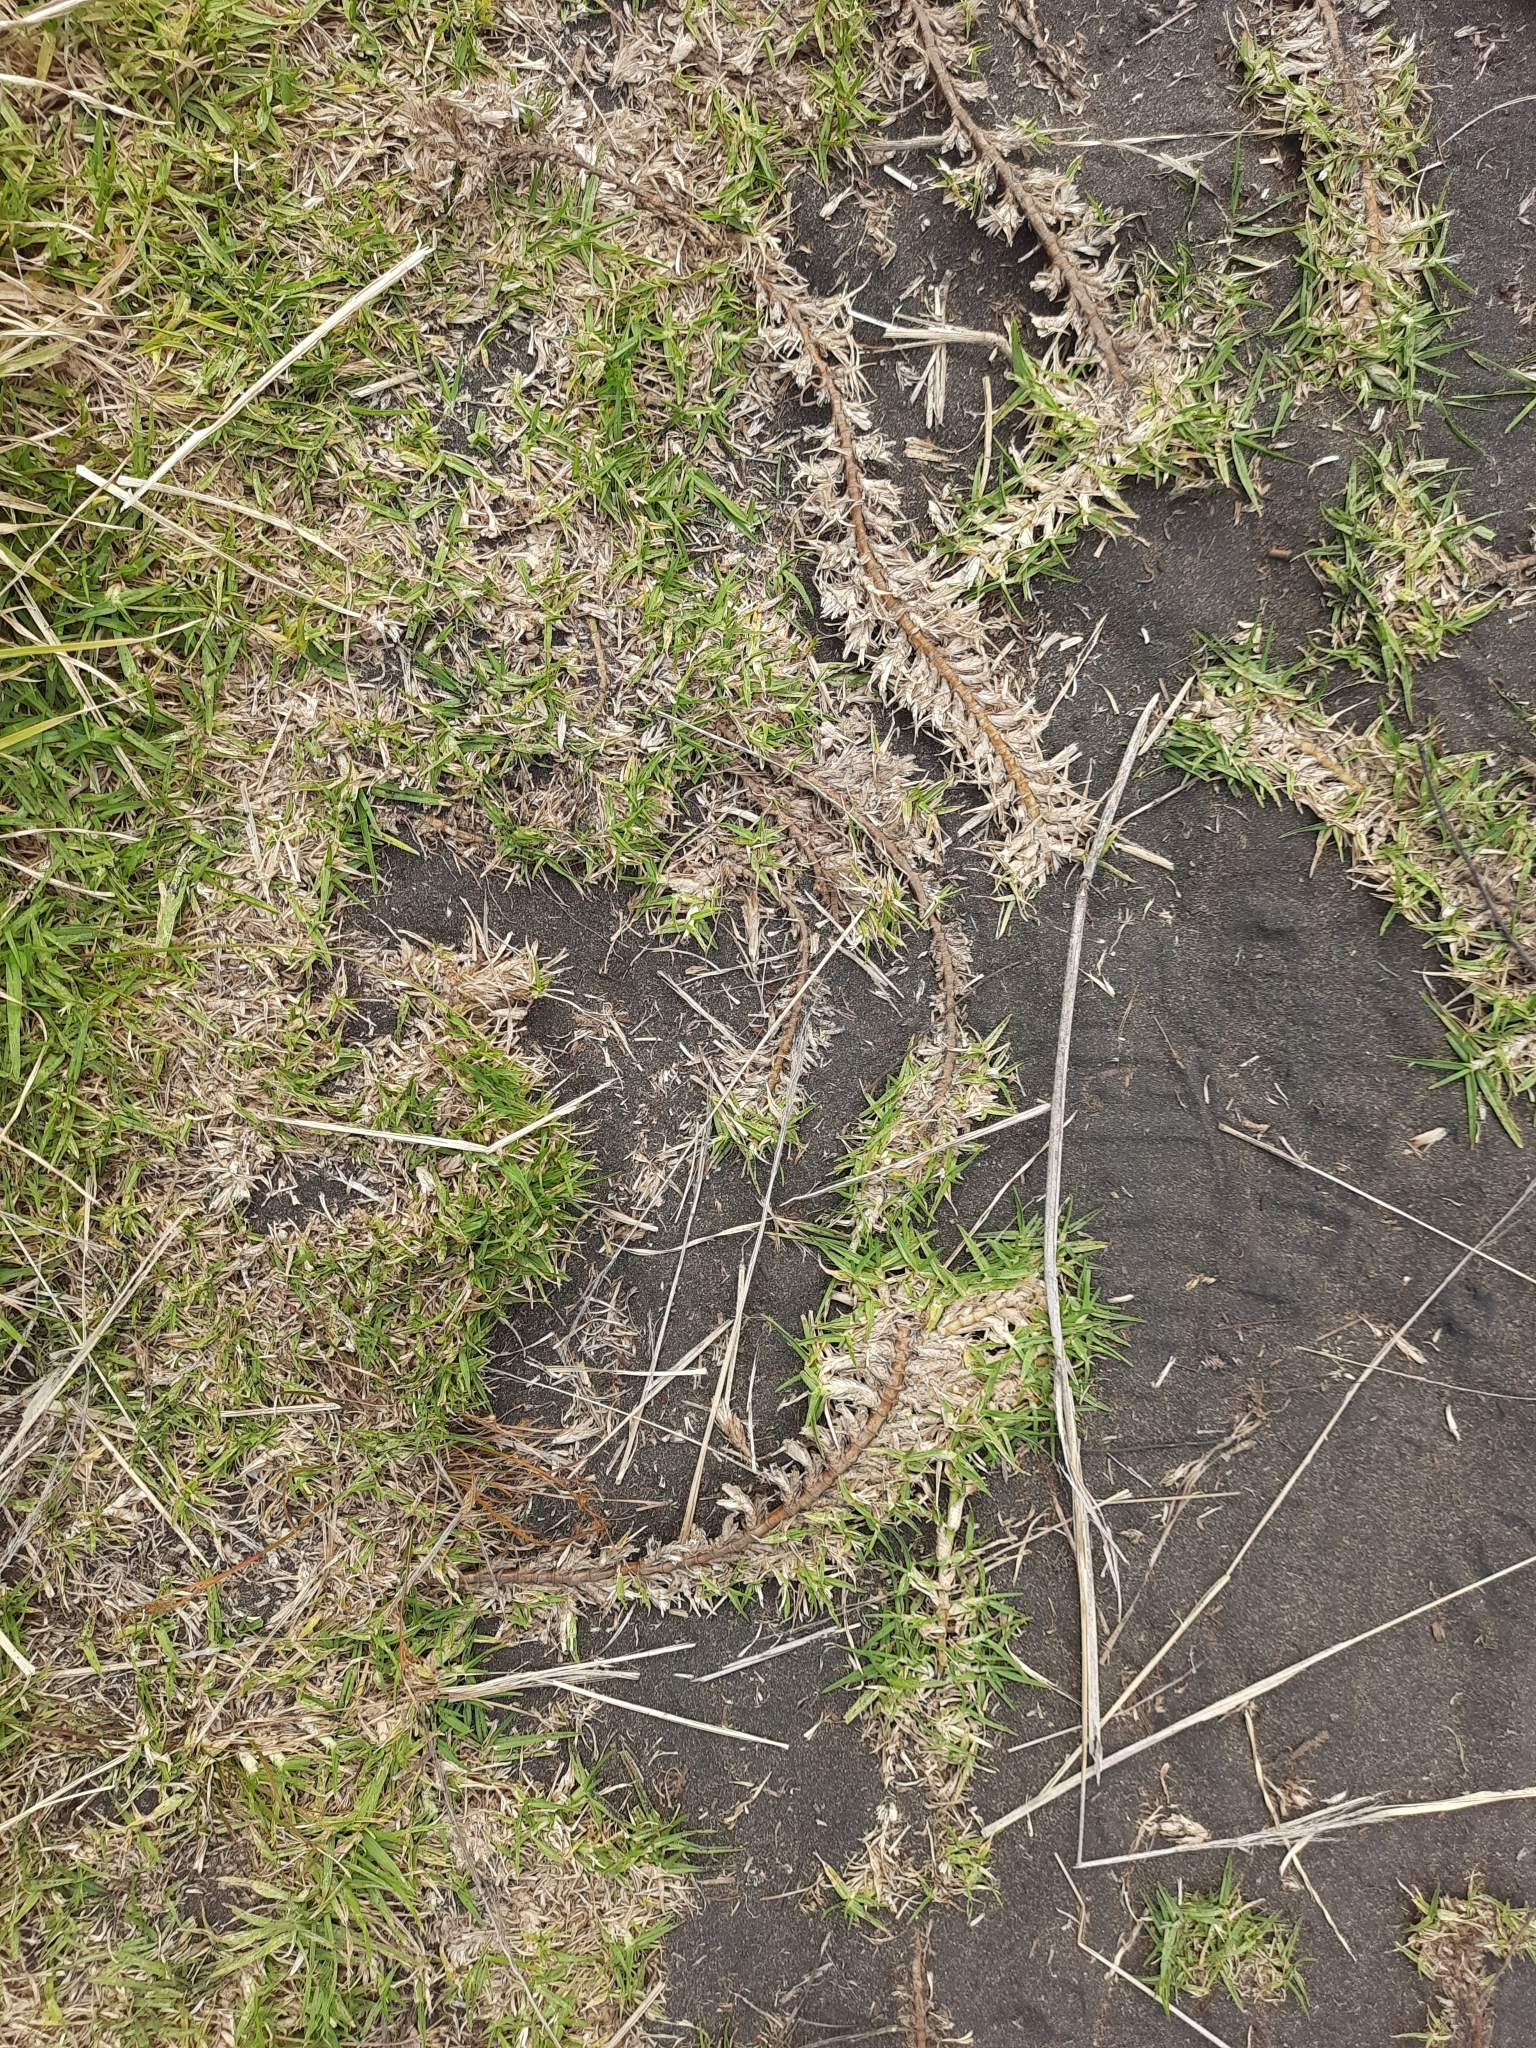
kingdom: Plantae
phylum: Tracheophyta
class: Liliopsida
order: Poales
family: Poaceae
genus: Cenchrus
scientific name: Cenchrus clandestinus
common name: Kikuyugrass
